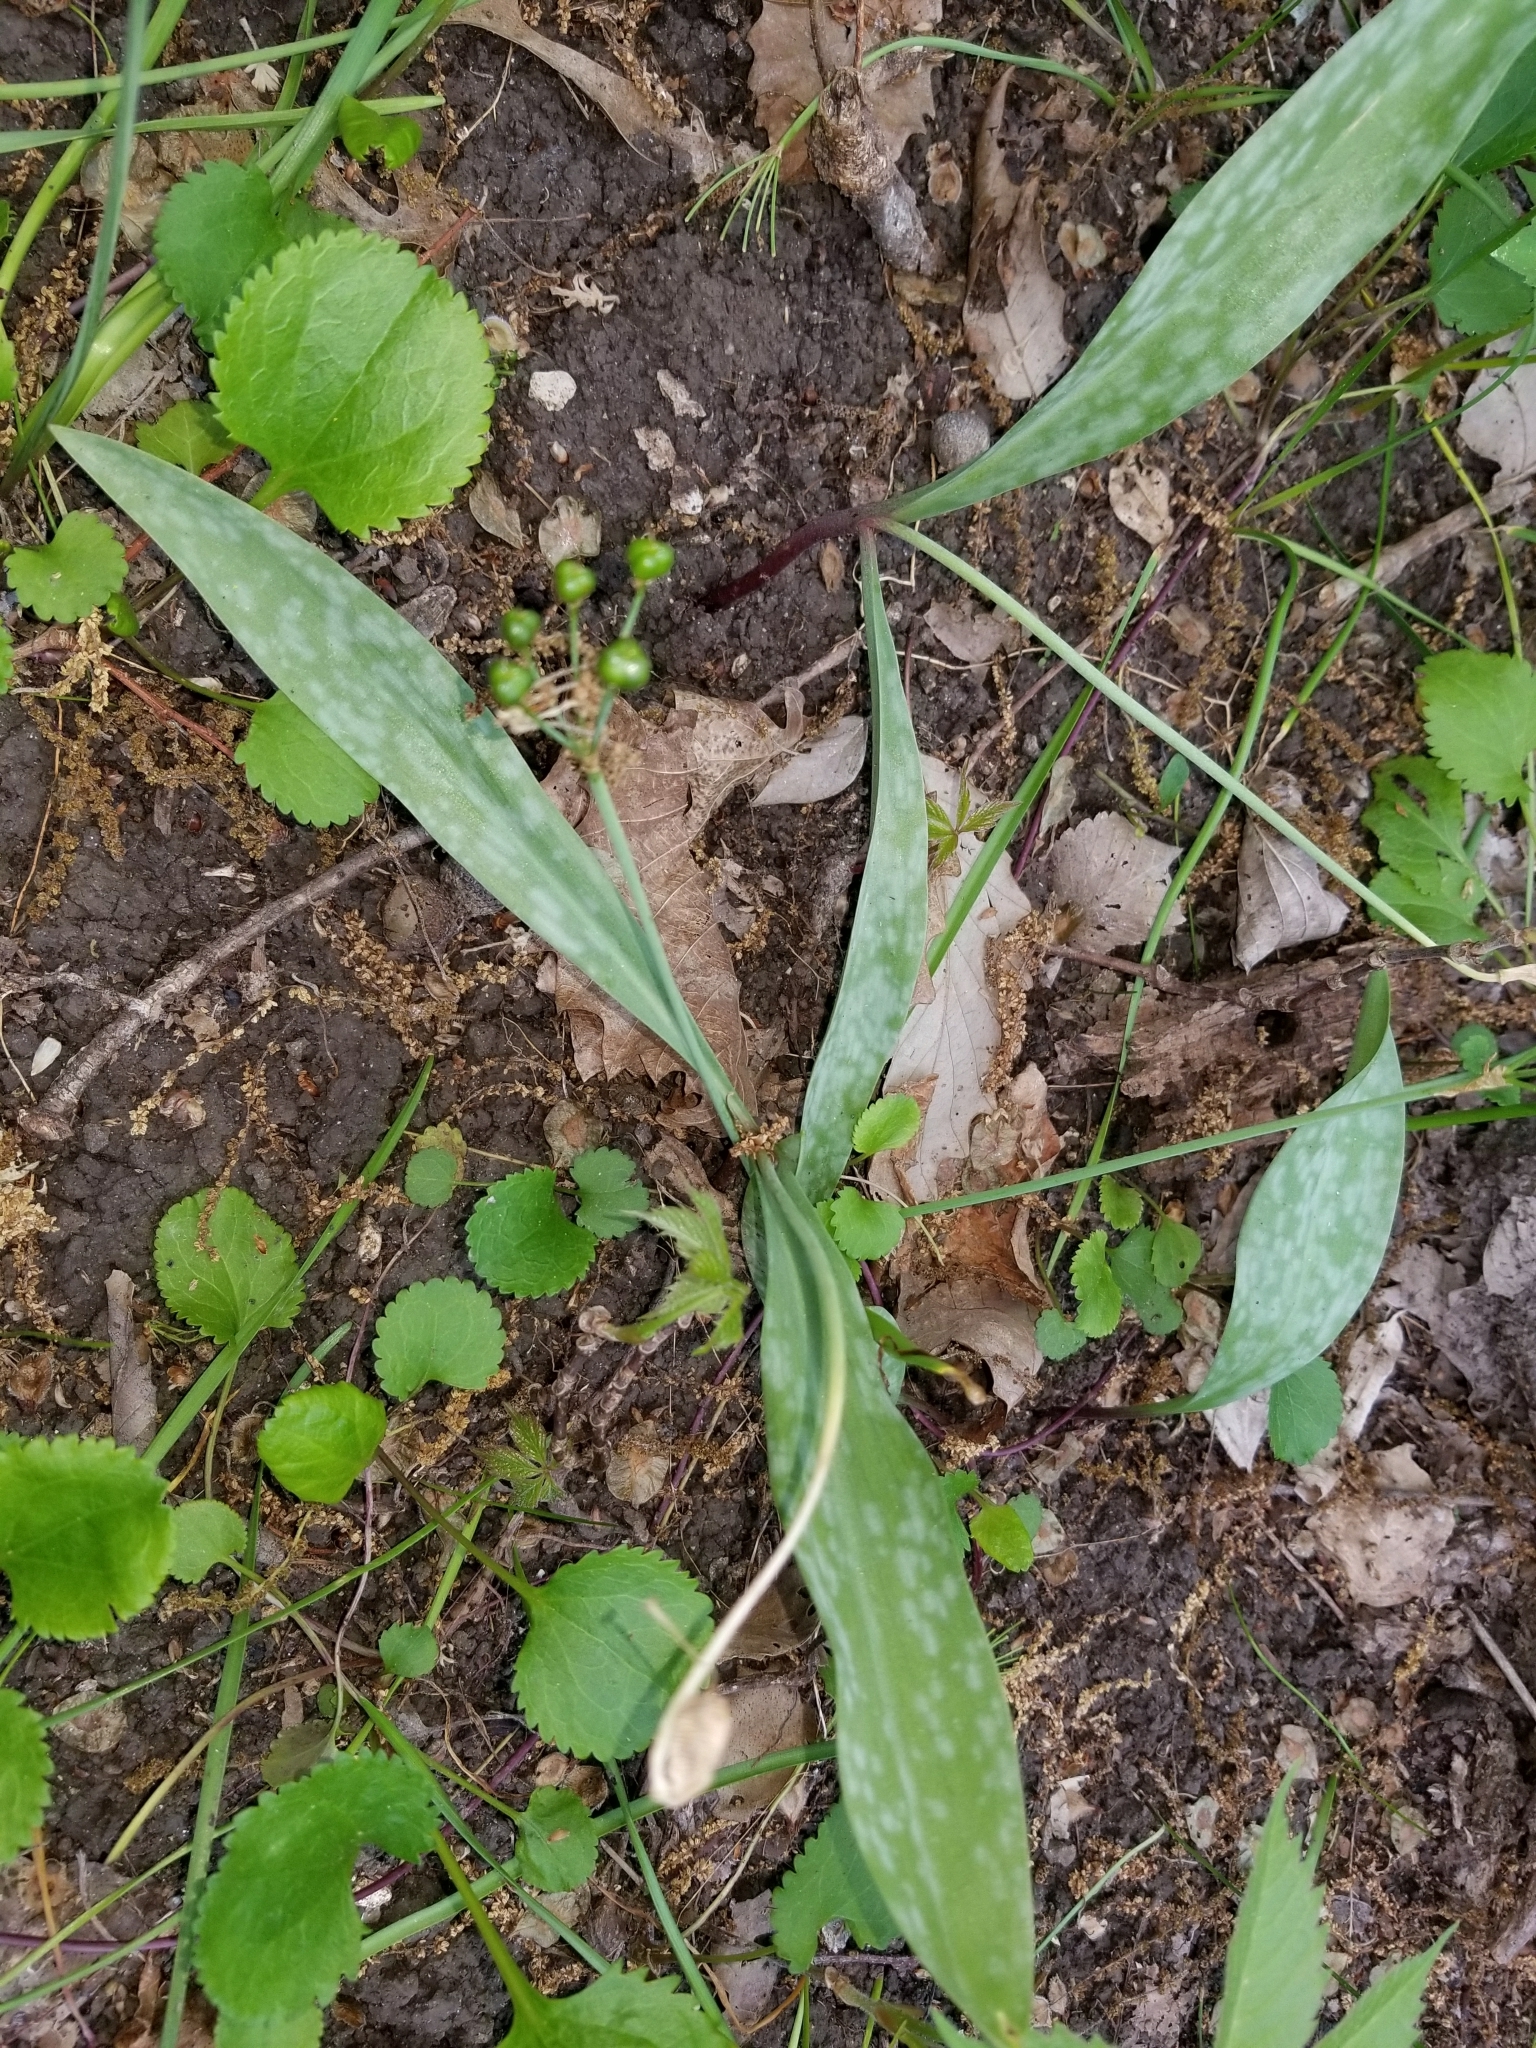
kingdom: Plantae
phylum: Tracheophyta
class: Liliopsida
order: Liliales
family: Liliaceae
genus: Erythronium
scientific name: Erythronium albidum
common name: White trout-lily
